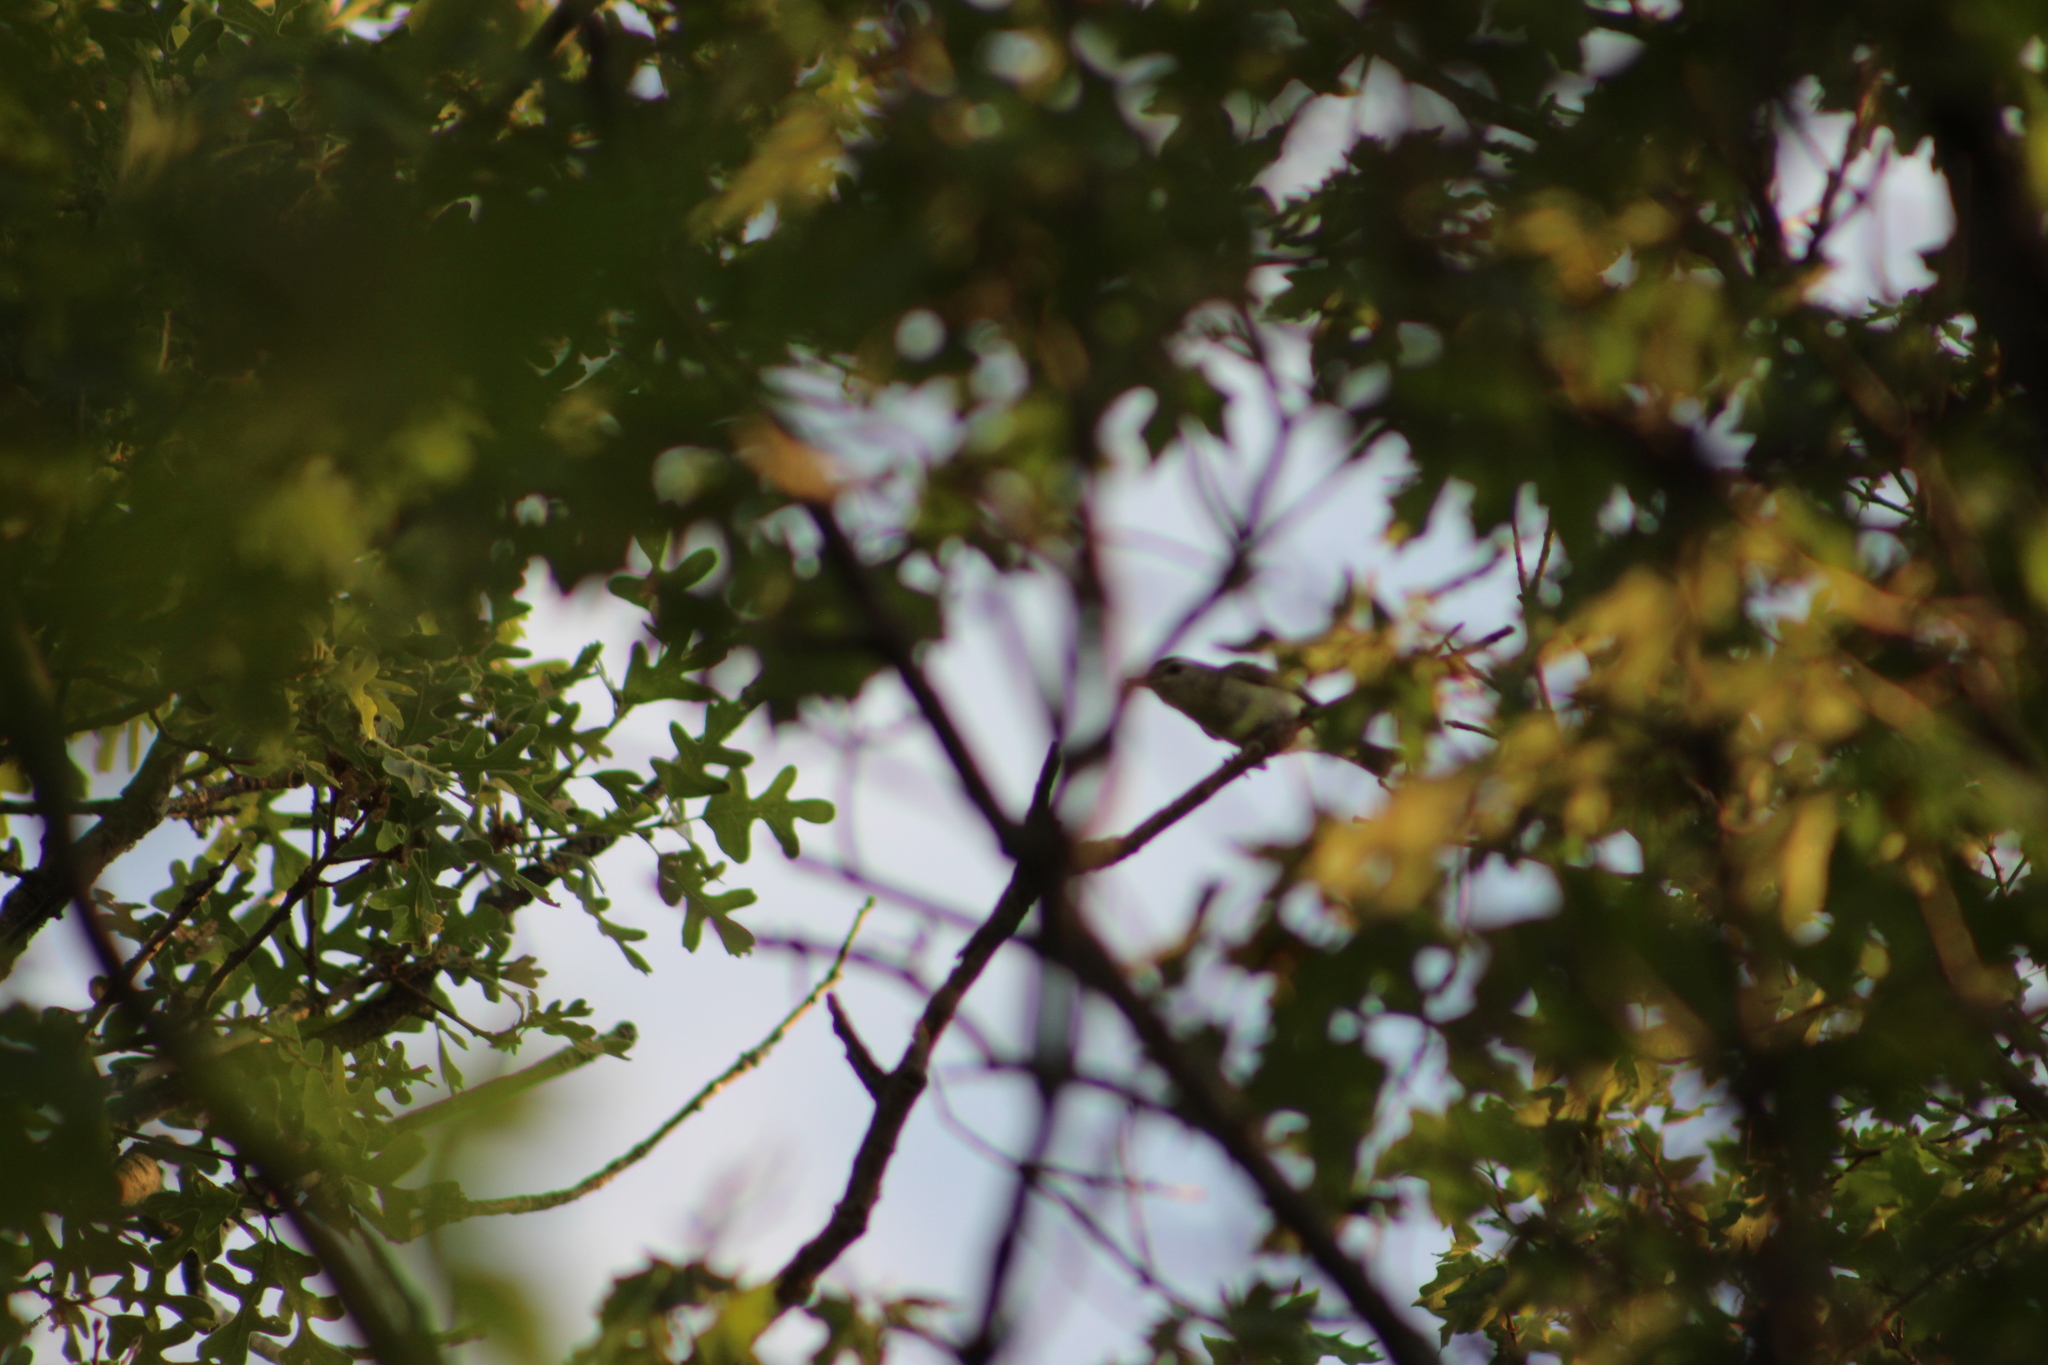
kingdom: Animalia
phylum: Chordata
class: Aves
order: Passeriformes
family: Vireonidae
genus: Vireo
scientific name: Vireo gilvus
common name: Warbling vireo
